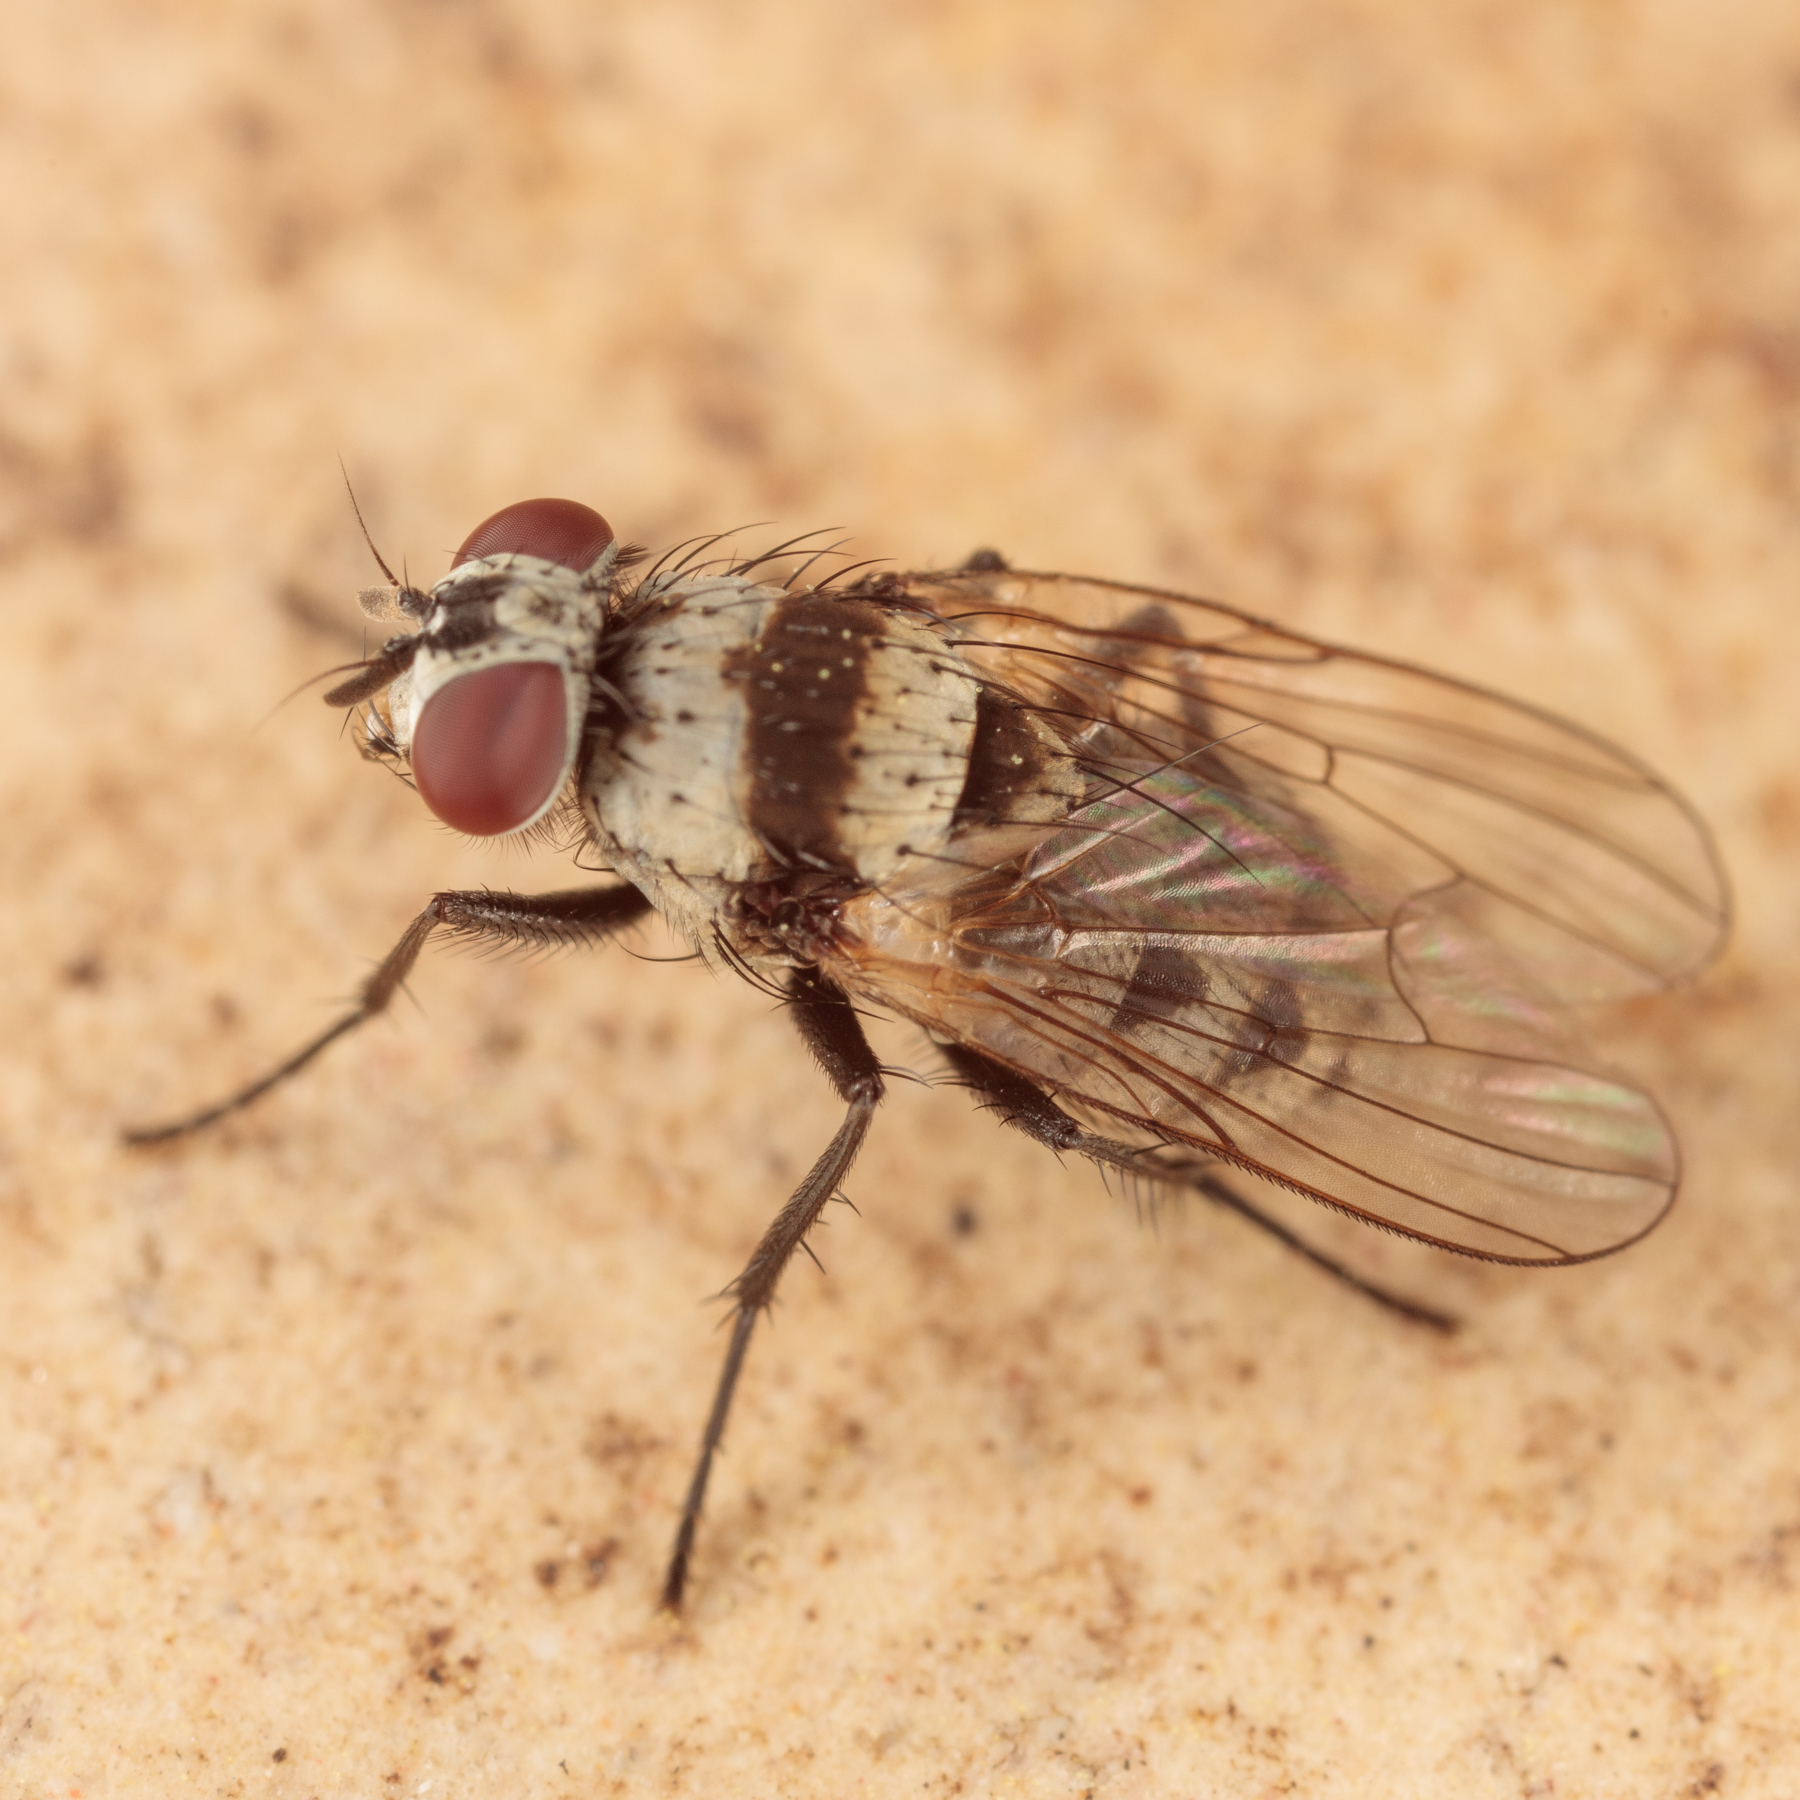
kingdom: Animalia
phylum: Arthropoda
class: Insecta
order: Diptera
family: Anthomyiidae
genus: Anthomyia
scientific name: Anthomyia illocata
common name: Fly
